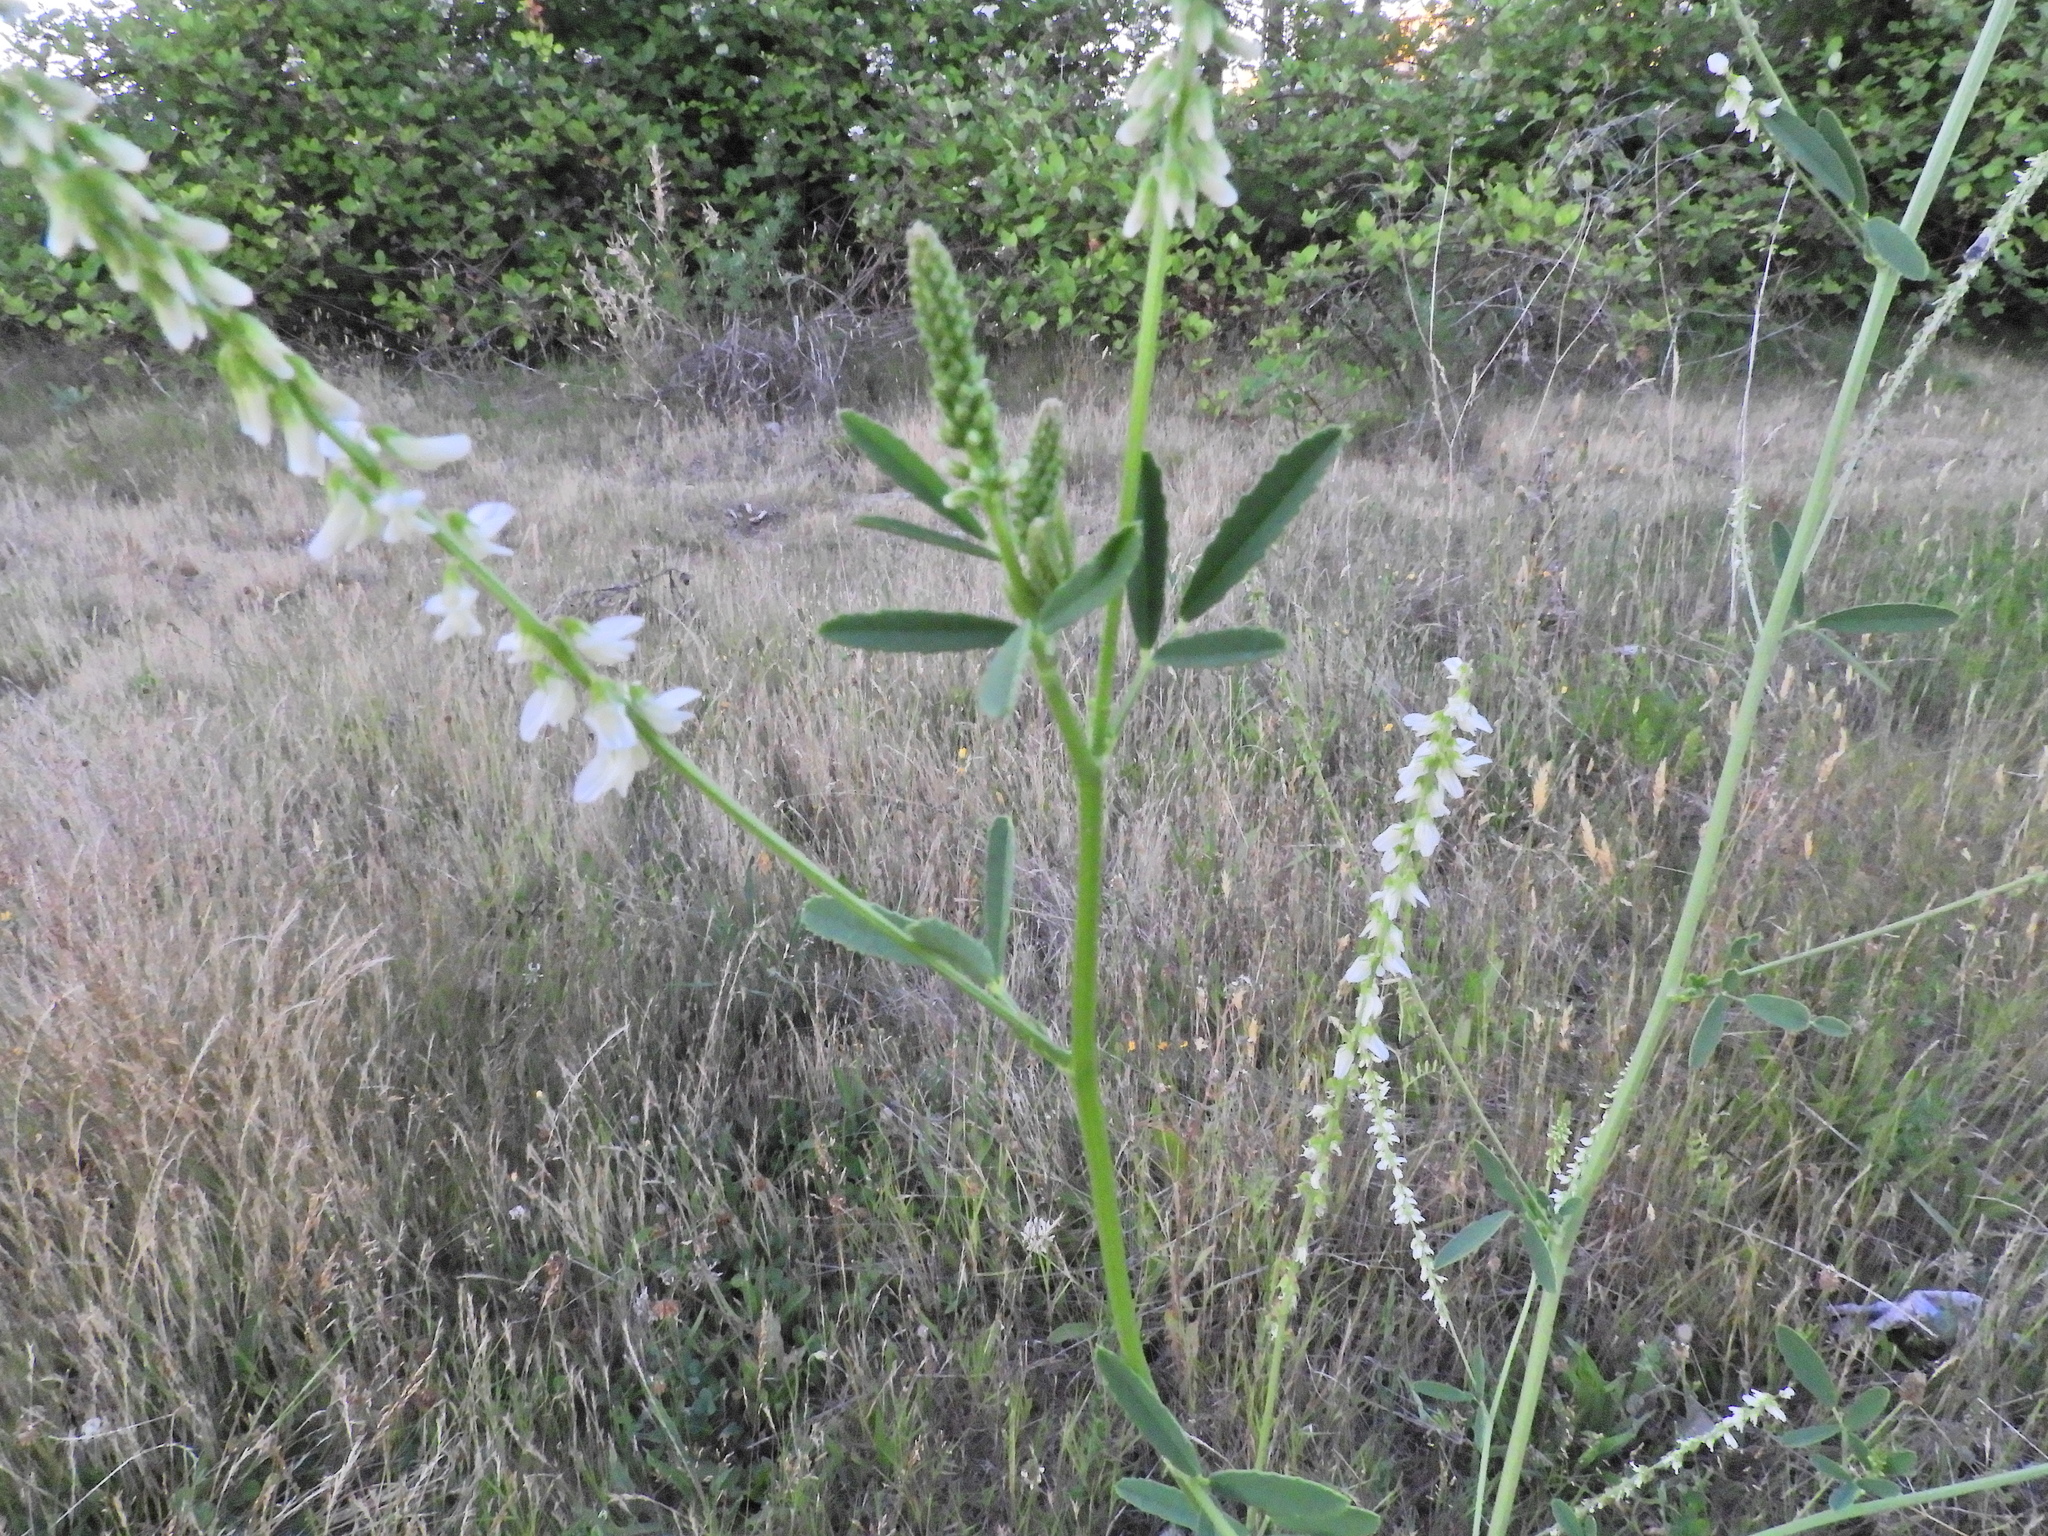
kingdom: Plantae
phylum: Tracheophyta
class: Magnoliopsida
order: Fabales
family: Fabaceae
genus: Melilotus
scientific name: Melilotus albus
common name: White melilot
